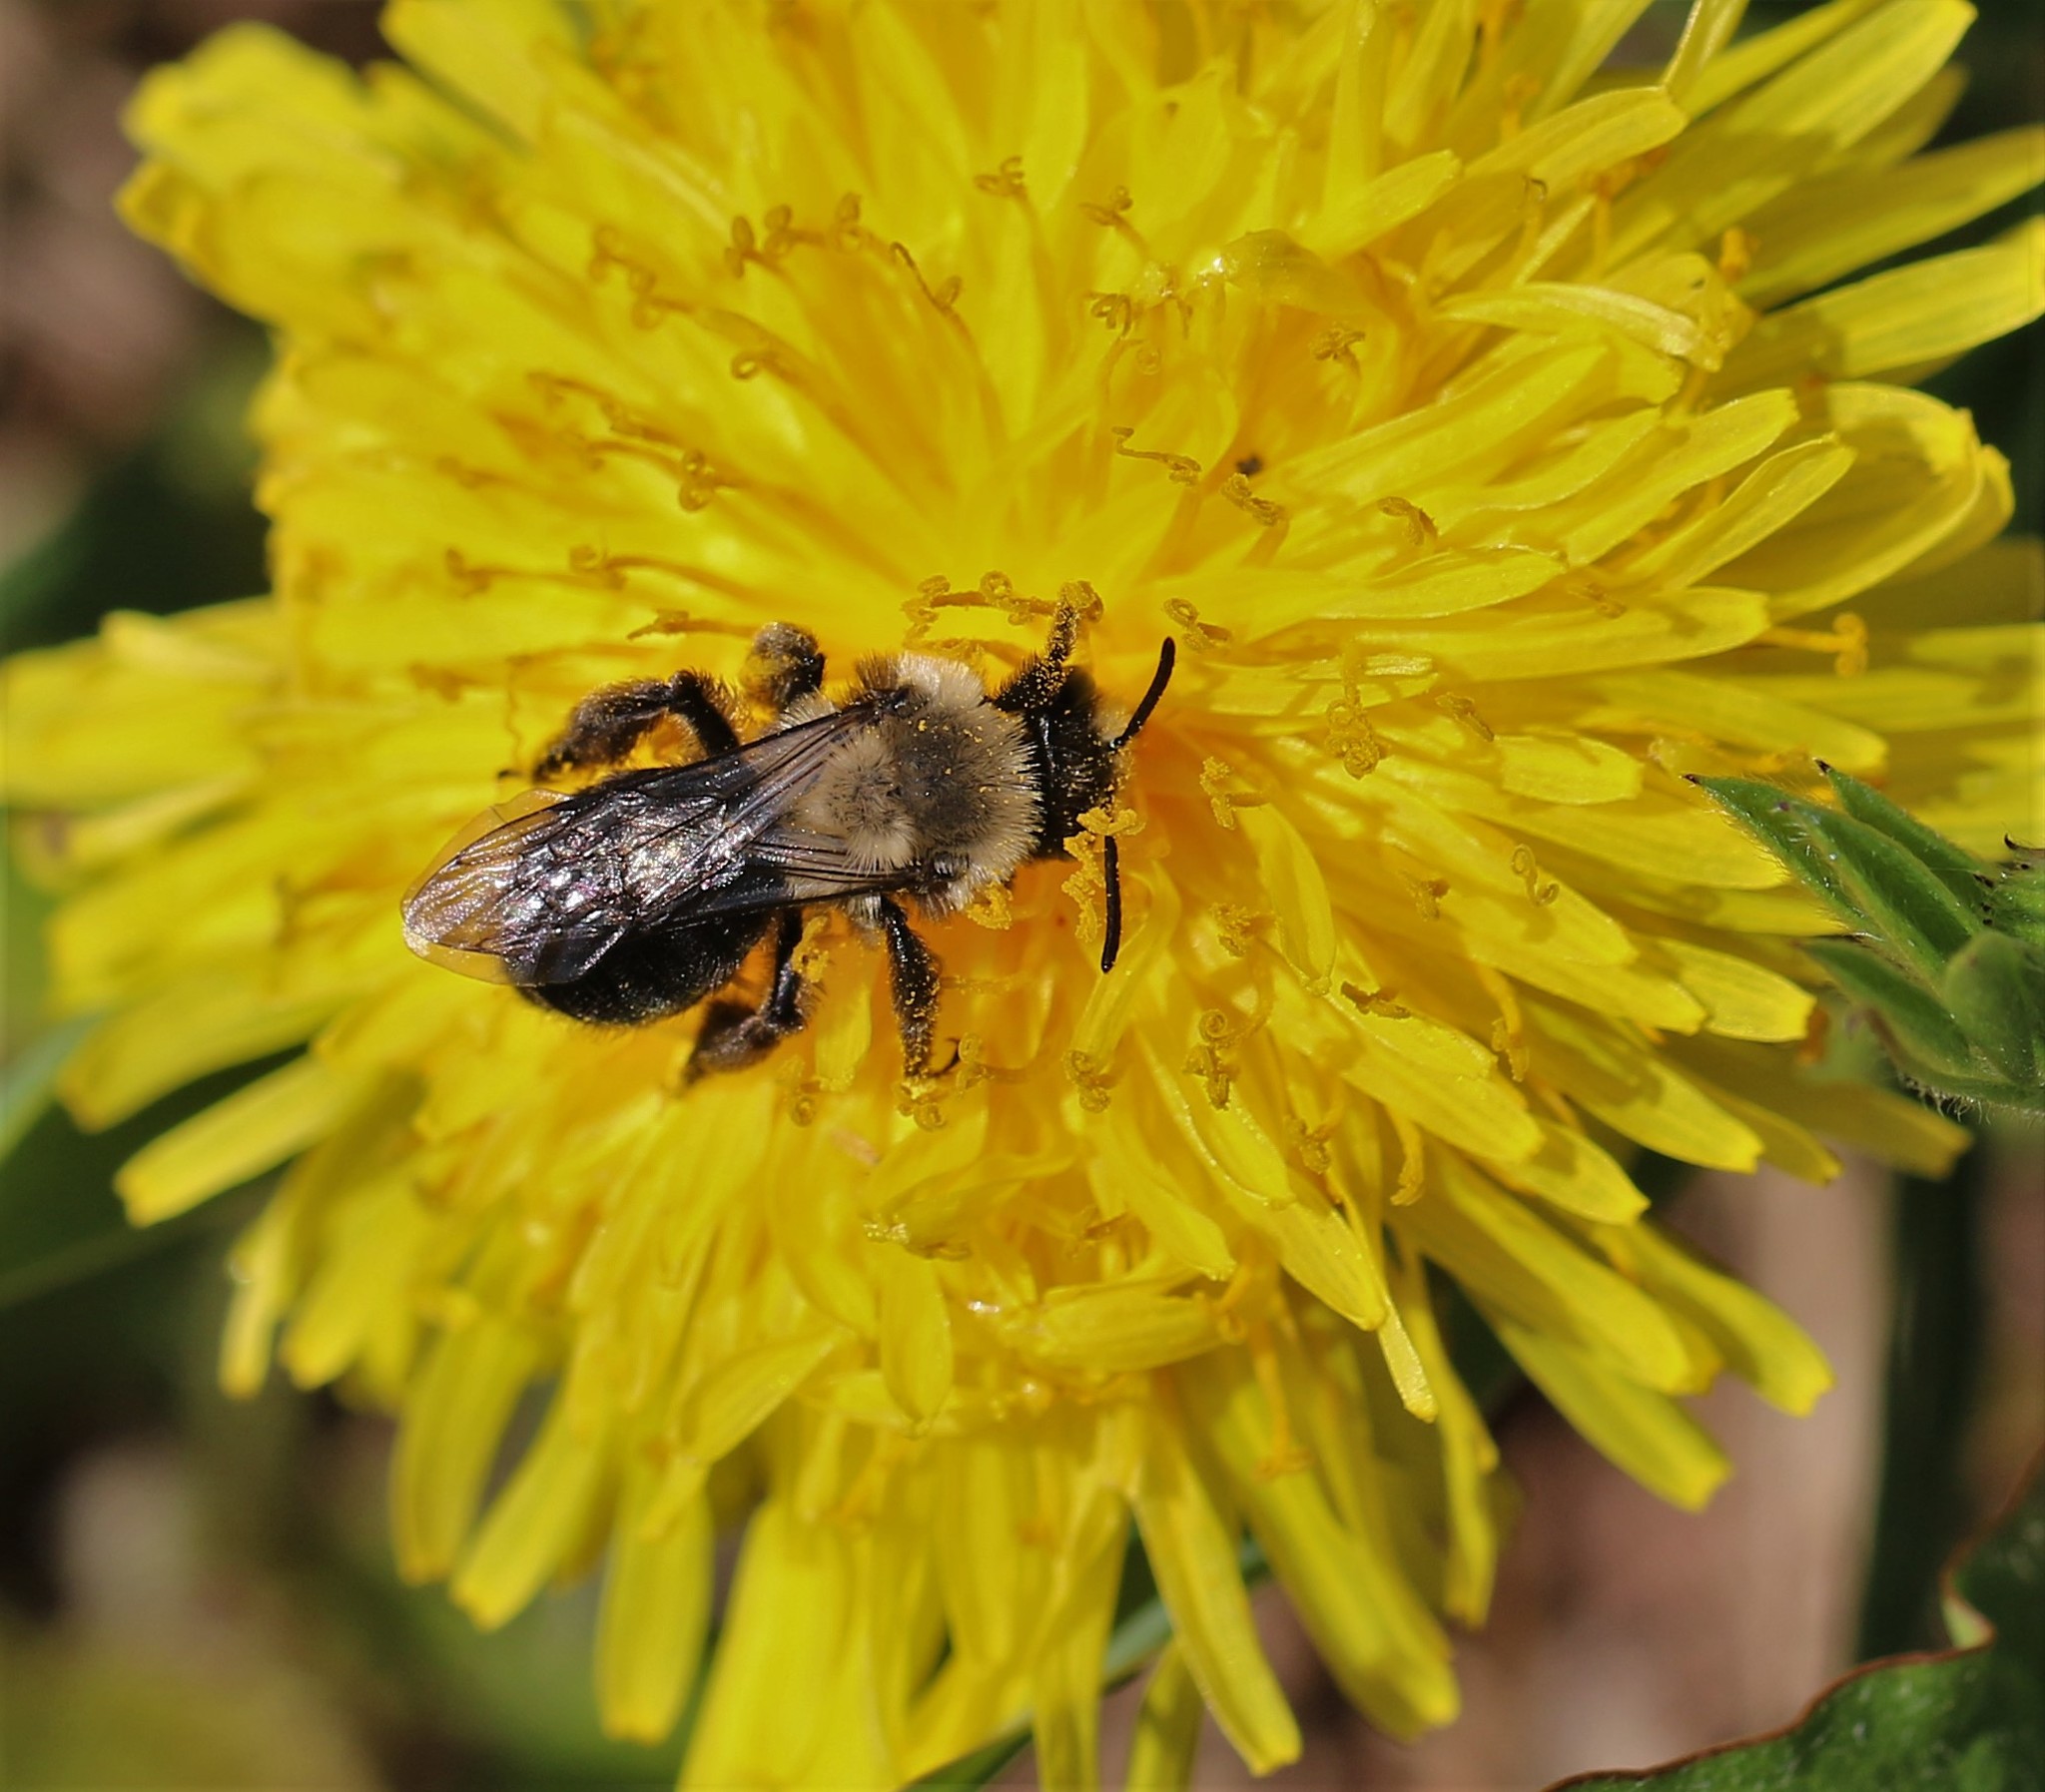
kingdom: Animalia
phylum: Arthropoda
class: Insecta
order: Hymenoptera
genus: Melandrena
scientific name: Melandrena
